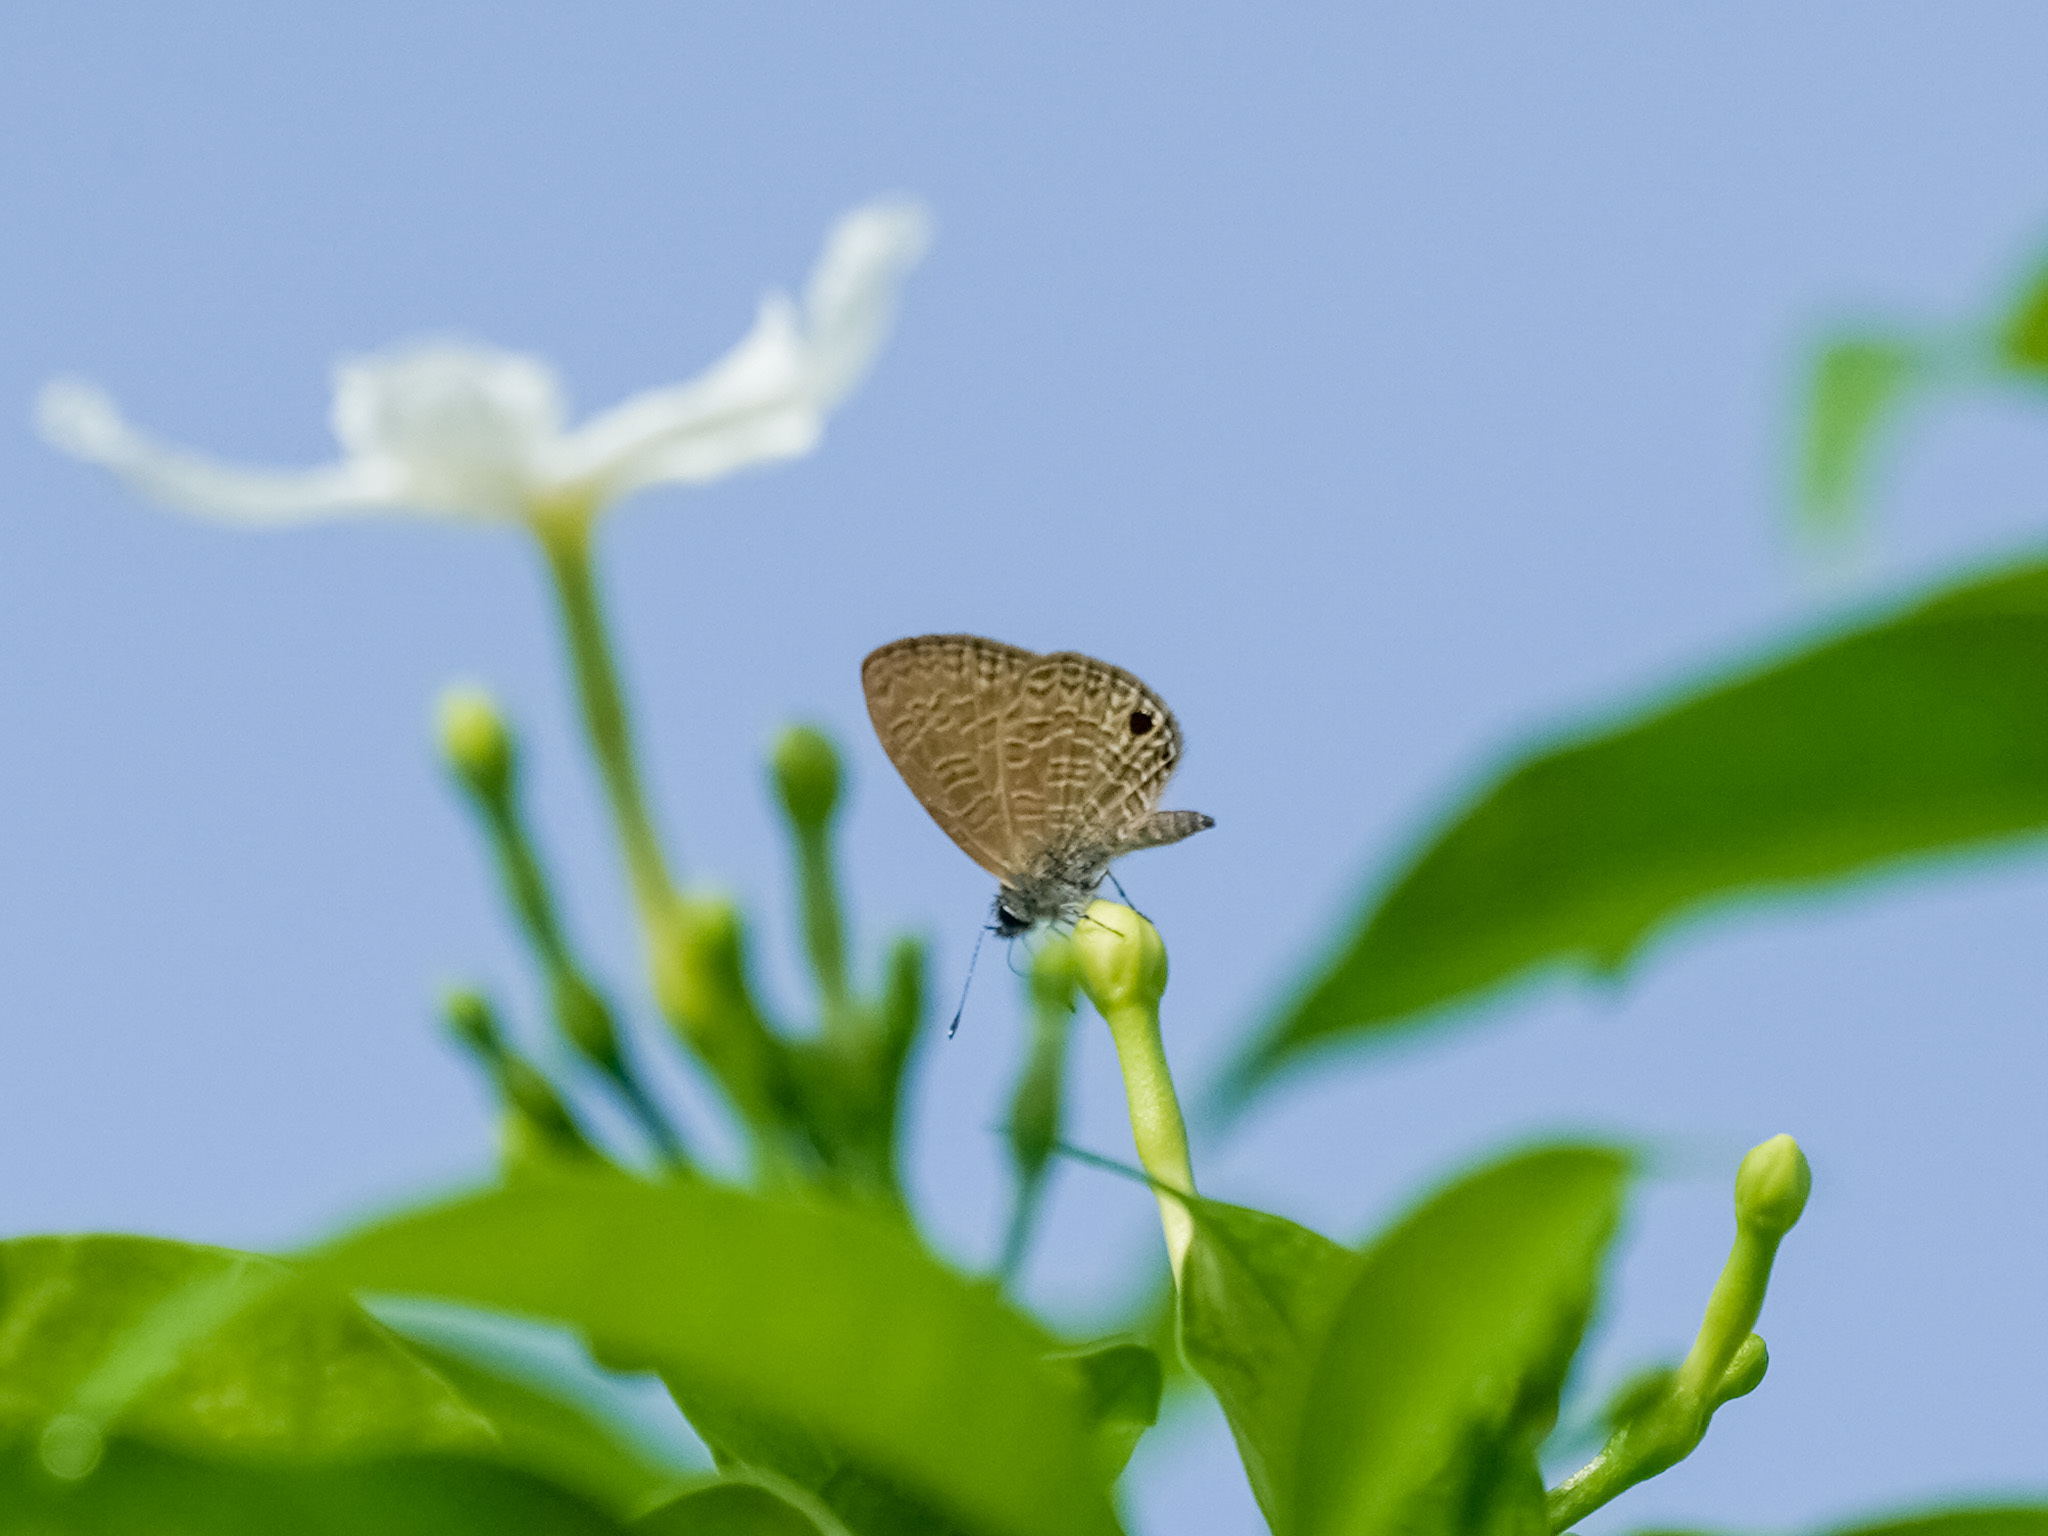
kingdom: Animalia
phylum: Arthropoda
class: Insecta
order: Lepidoptera
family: Lycaenidae
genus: Prosotas
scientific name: Prosotas dubiosa
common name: Tailless lineblue
